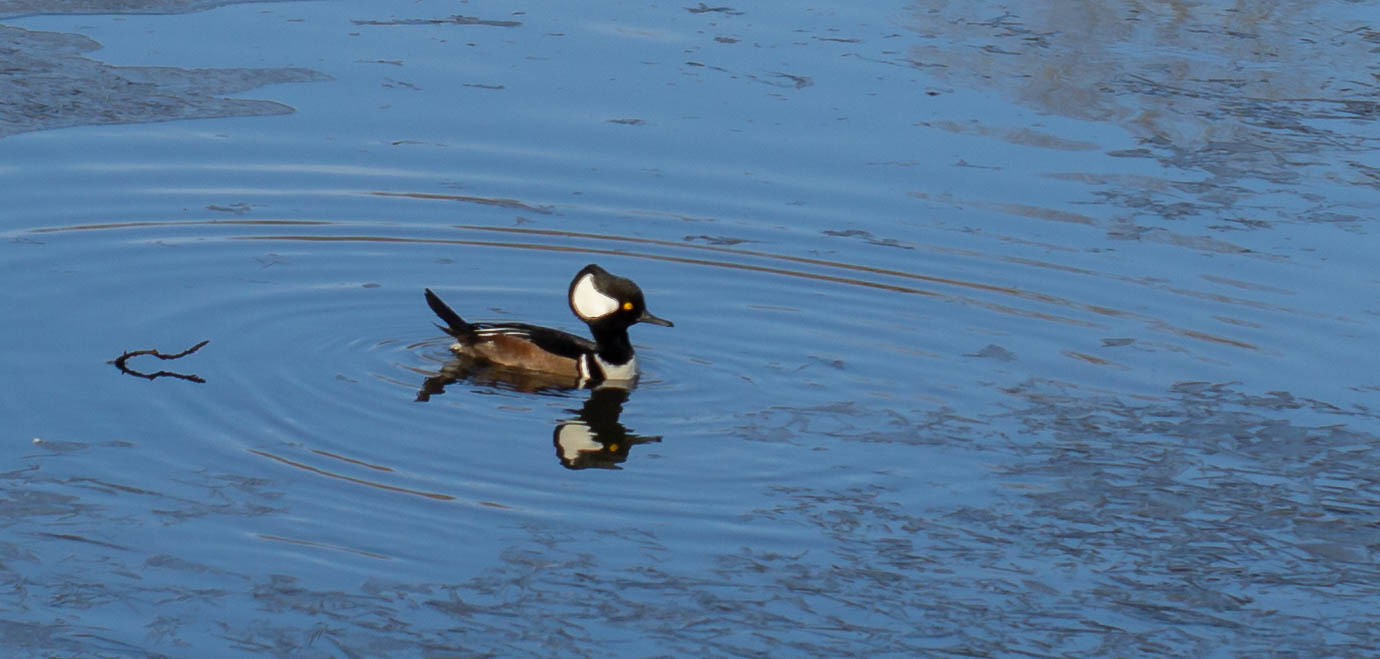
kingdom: Animalia
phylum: Chordata
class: Aves
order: Anseriformes
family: Anatidae
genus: Lophodytes
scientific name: Lophodytes cucullatus
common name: Hooded merganser
